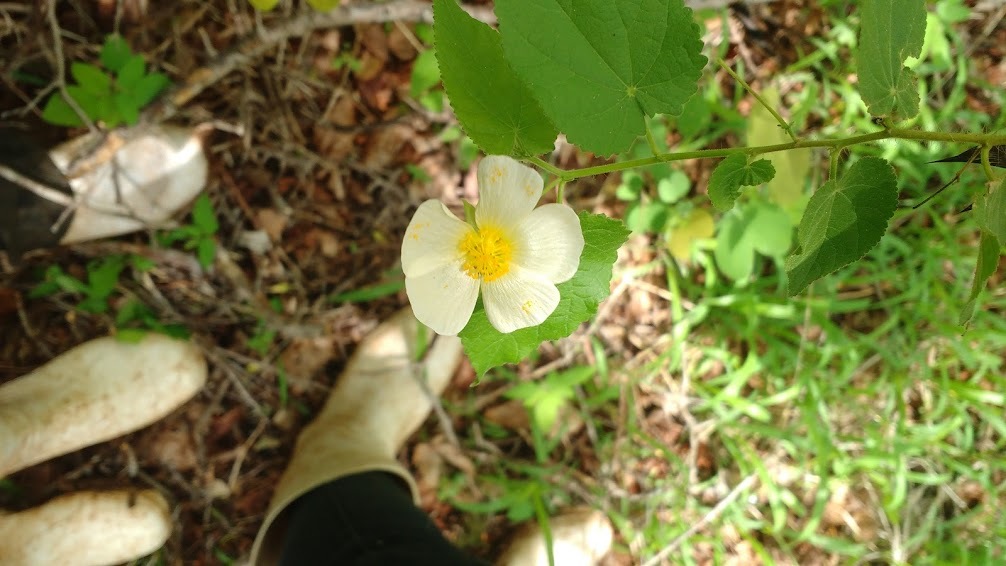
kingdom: Plantae
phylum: Tracheophyta
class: Magnoliopsida
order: Malvales
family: Malvaceae
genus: Herissantia
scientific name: Herissantia tiubae
